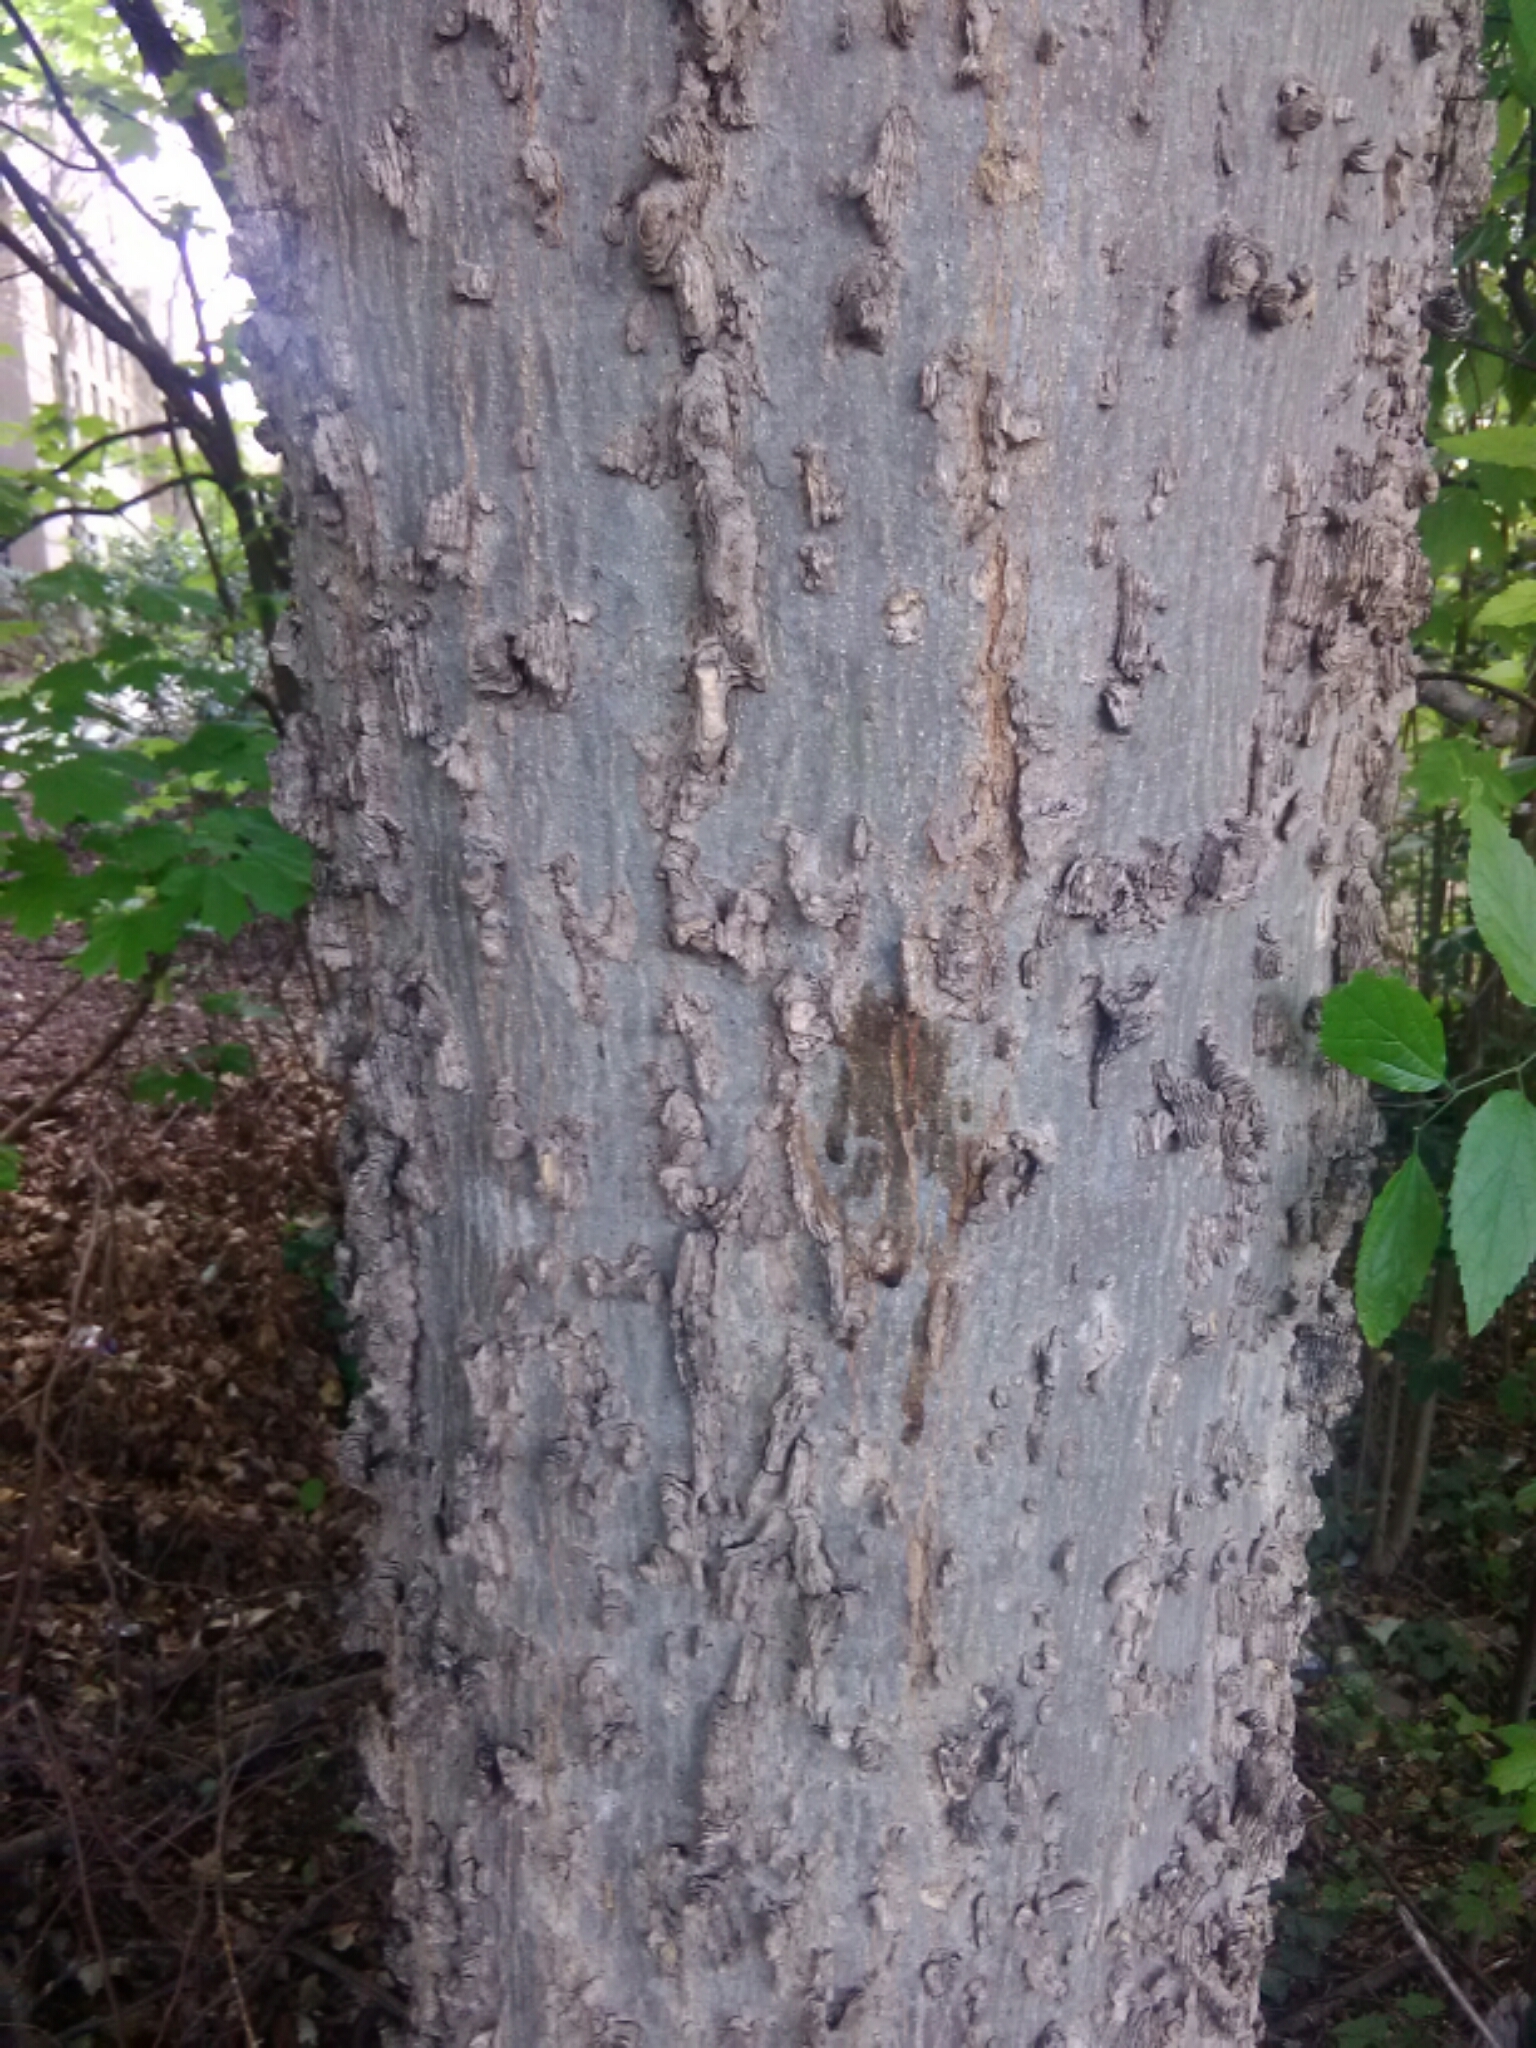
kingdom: Plantae
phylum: Tracheophyta
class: Magnoliopsida
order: Rosales
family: Cannabaceae
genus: Celtis
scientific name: Celtis laevigata
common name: Sugarberry
